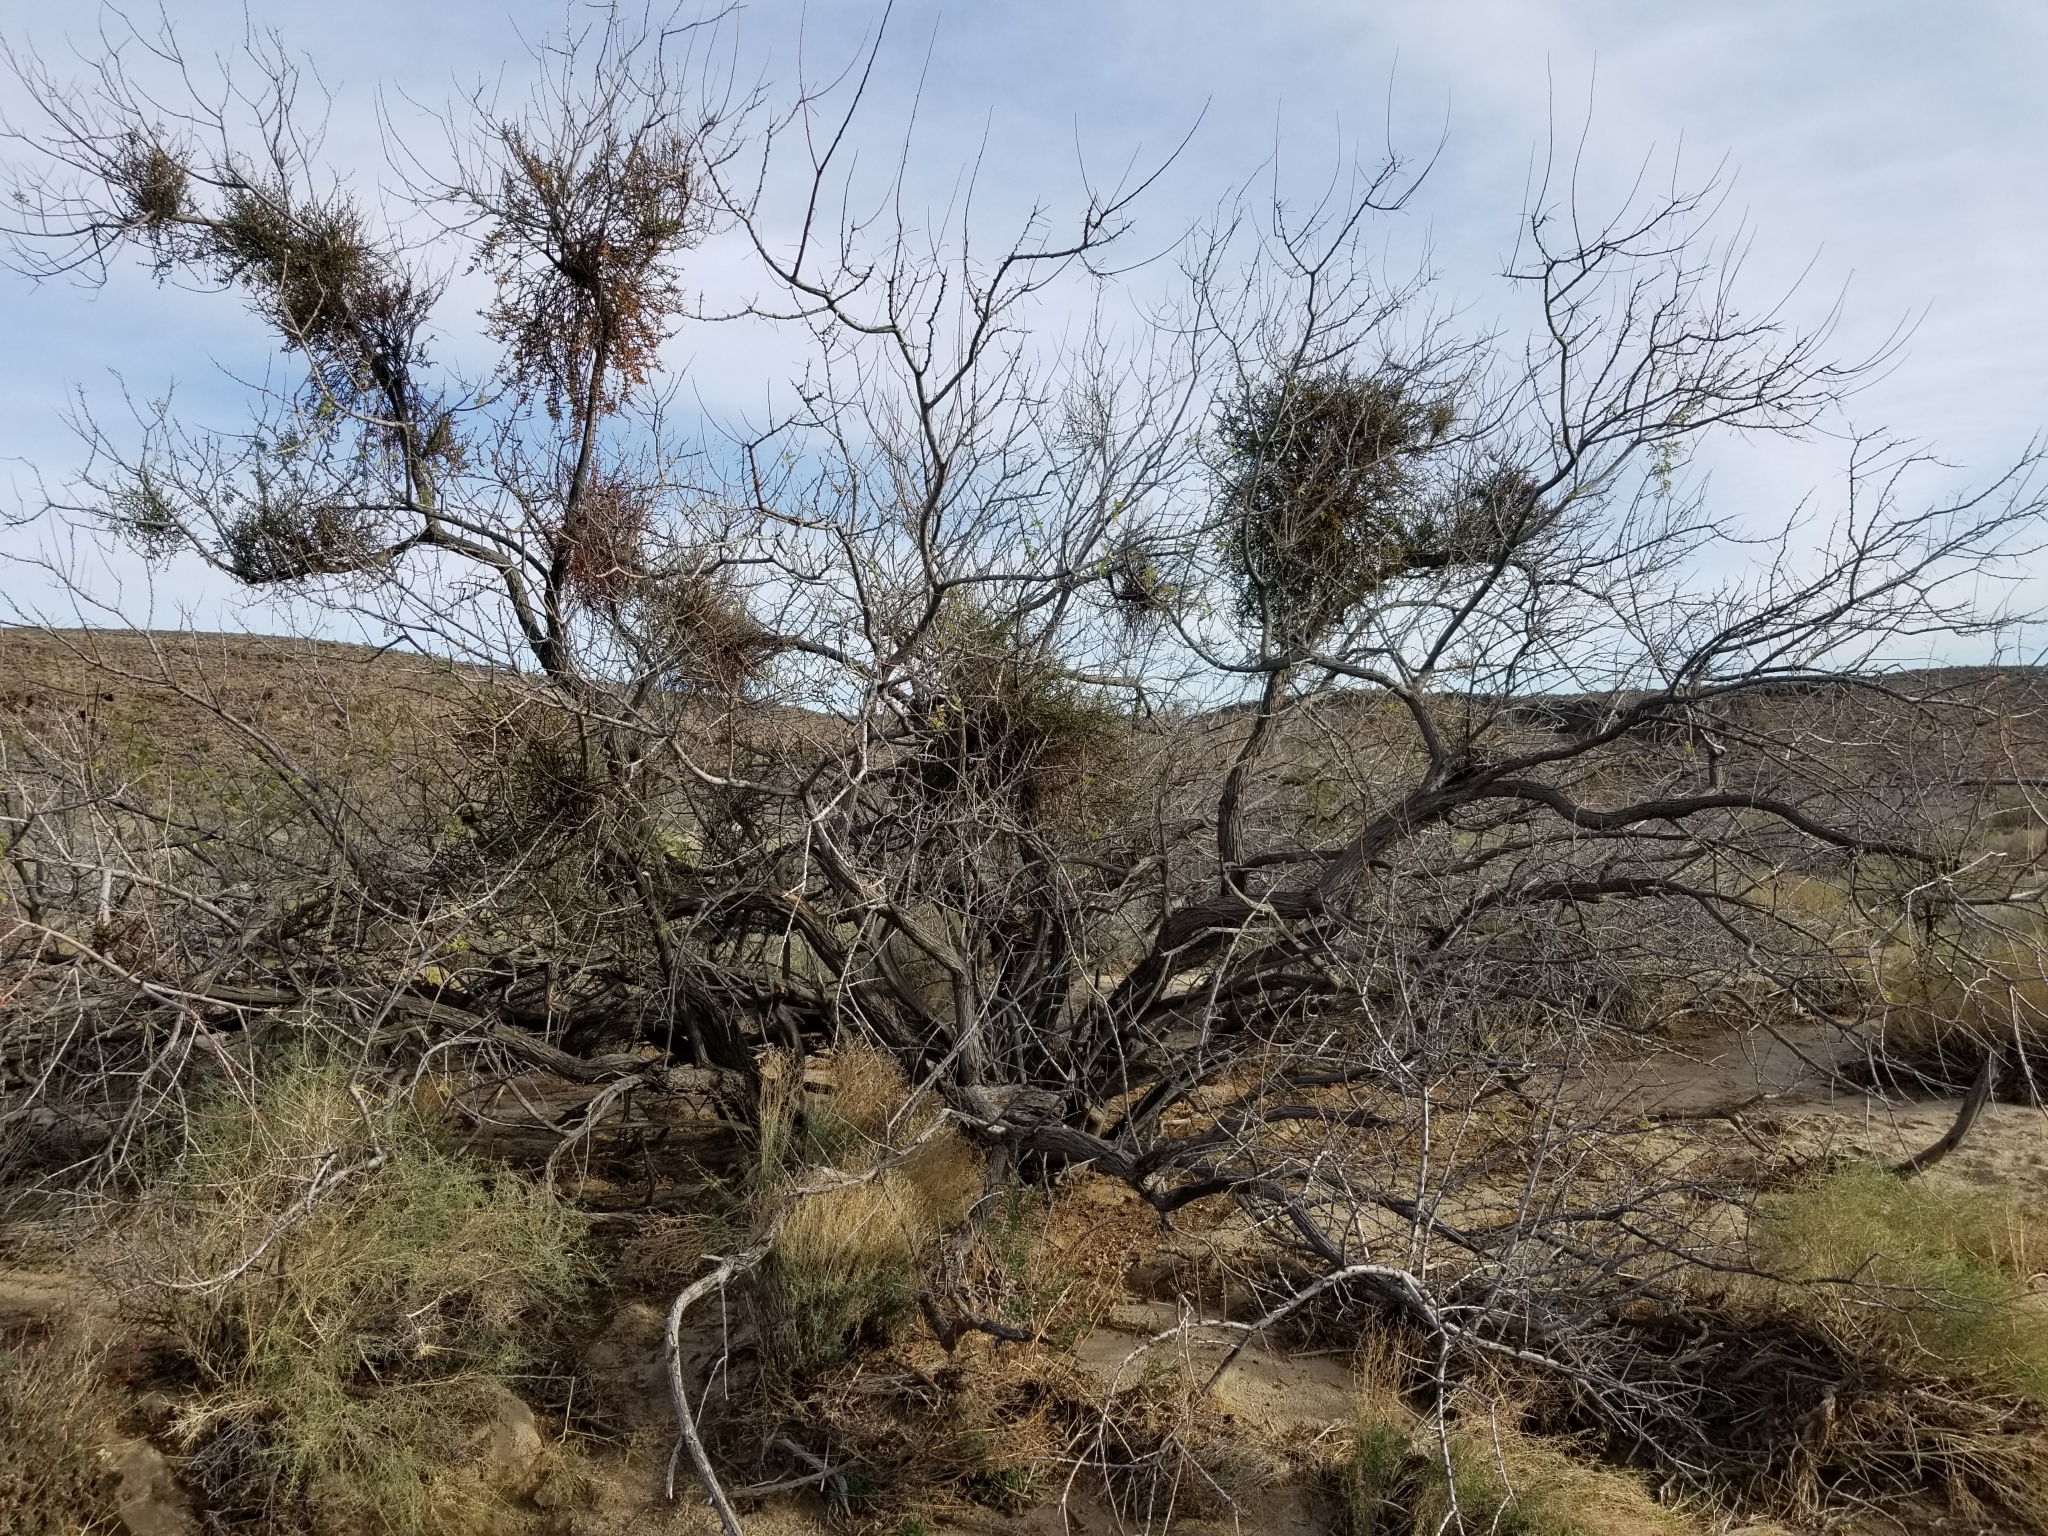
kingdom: Plantae
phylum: Tracheophyta
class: Magnoliopsida
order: Santalales
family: Viscaceae
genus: Phoradendron
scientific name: Phoradendron californicum
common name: Acacia mistletoe
